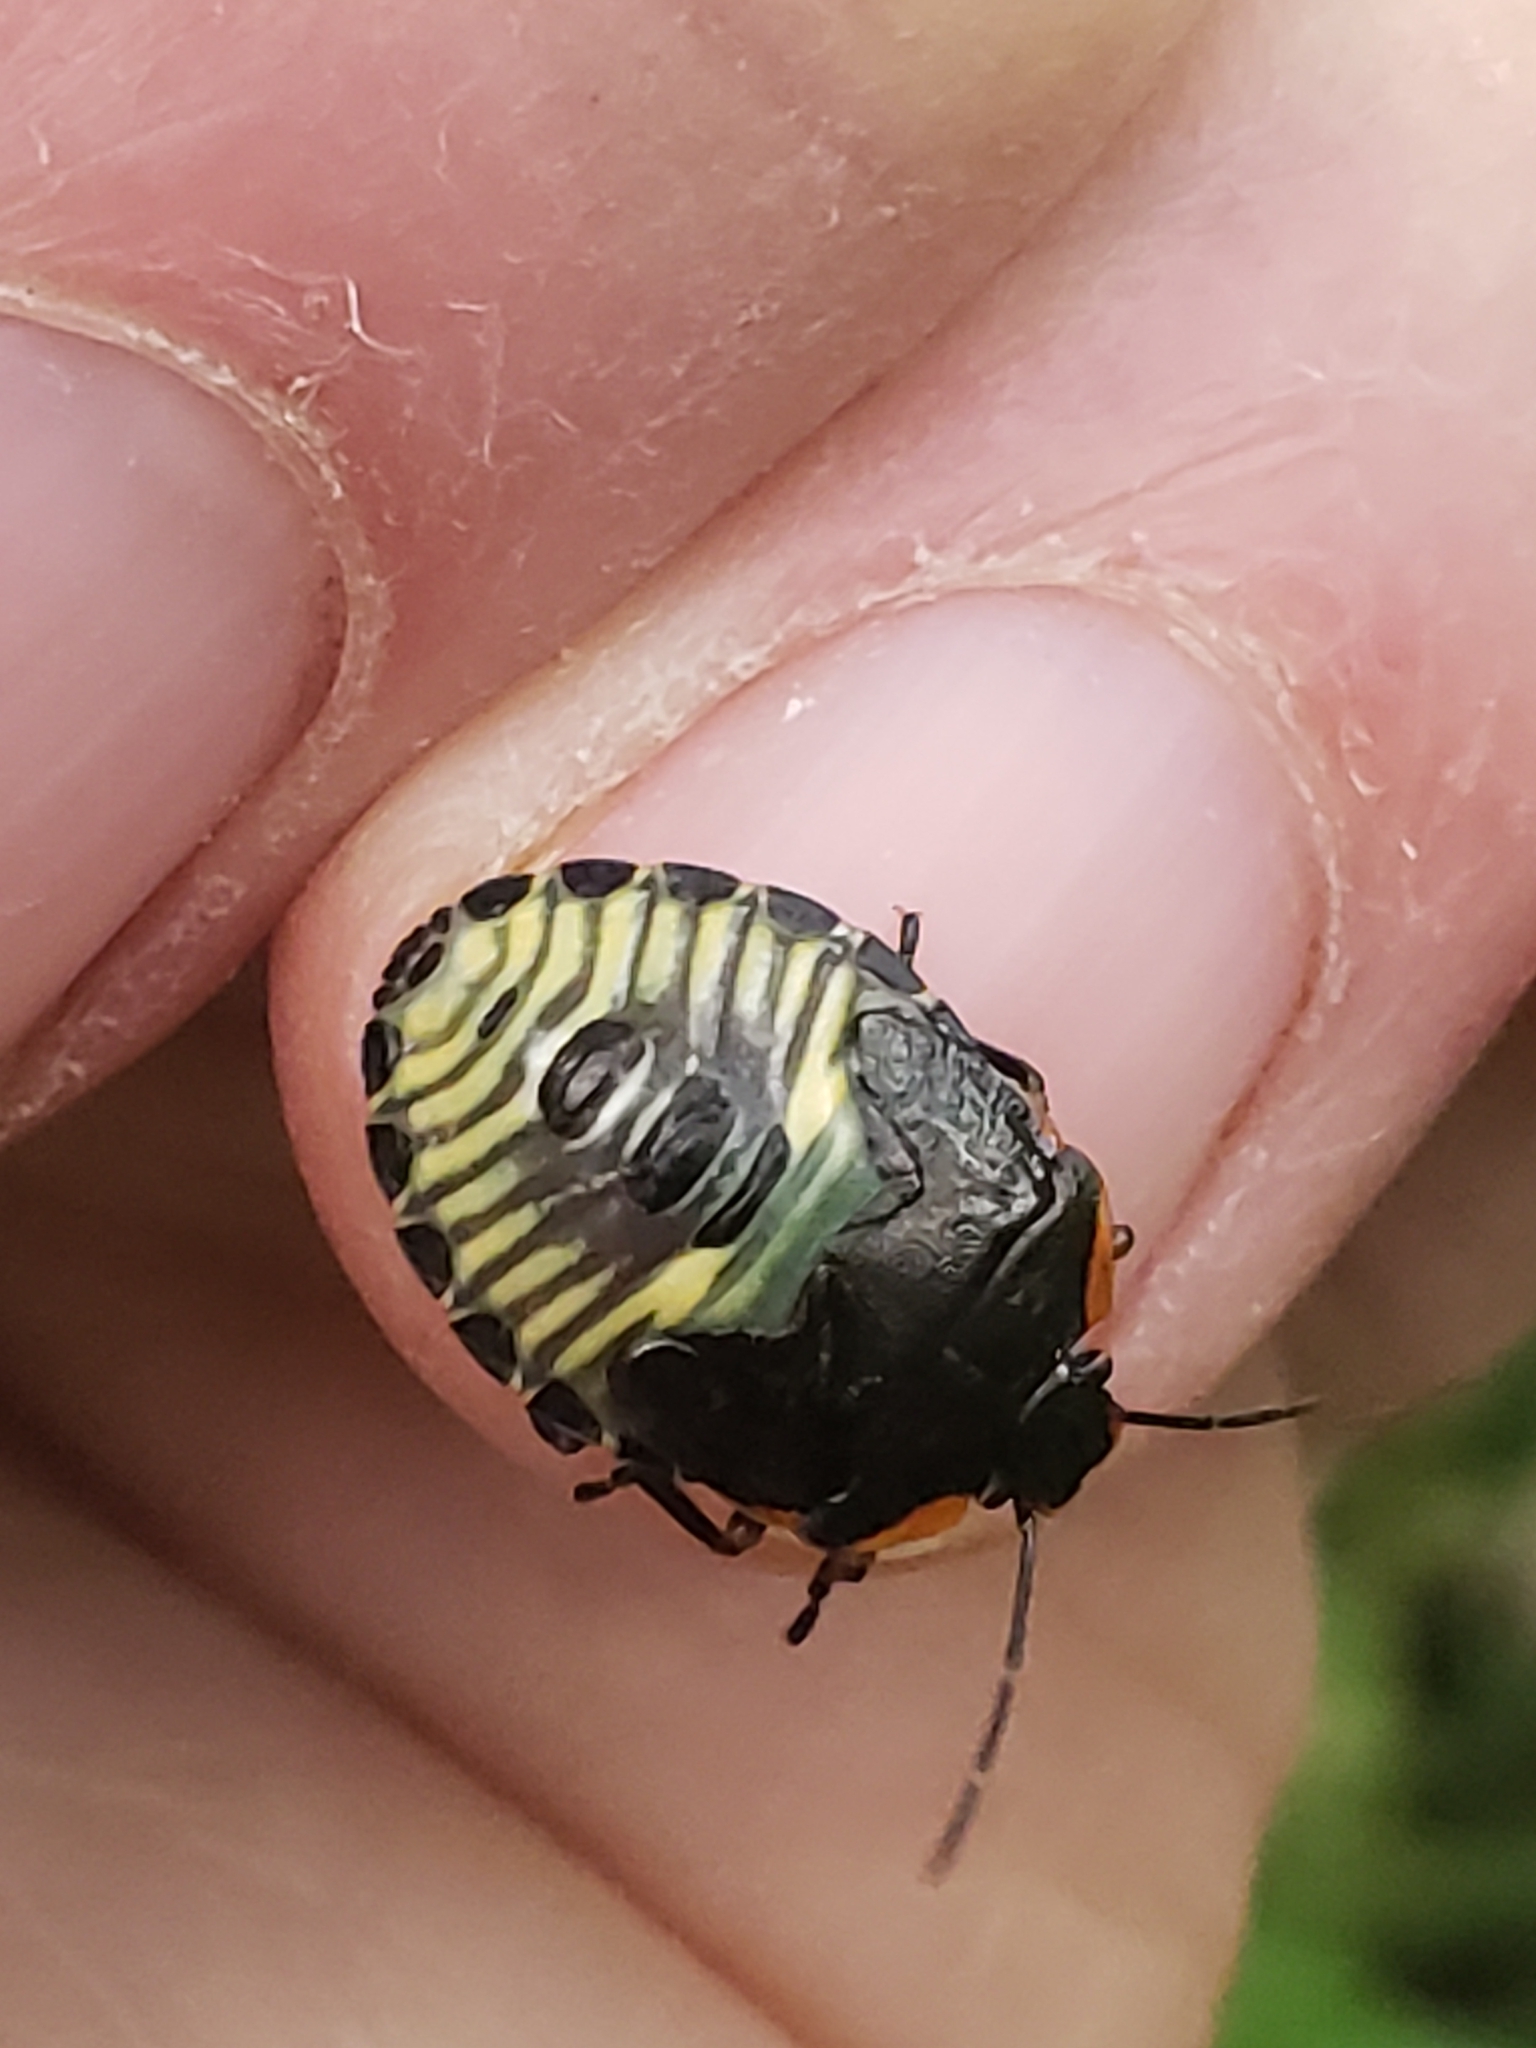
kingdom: Animalia
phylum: Arthropoda
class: Insecta
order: Hemiptera
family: Pentatomidae
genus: Chinavia
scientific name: Chinavia hilaris
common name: Green stink bug
